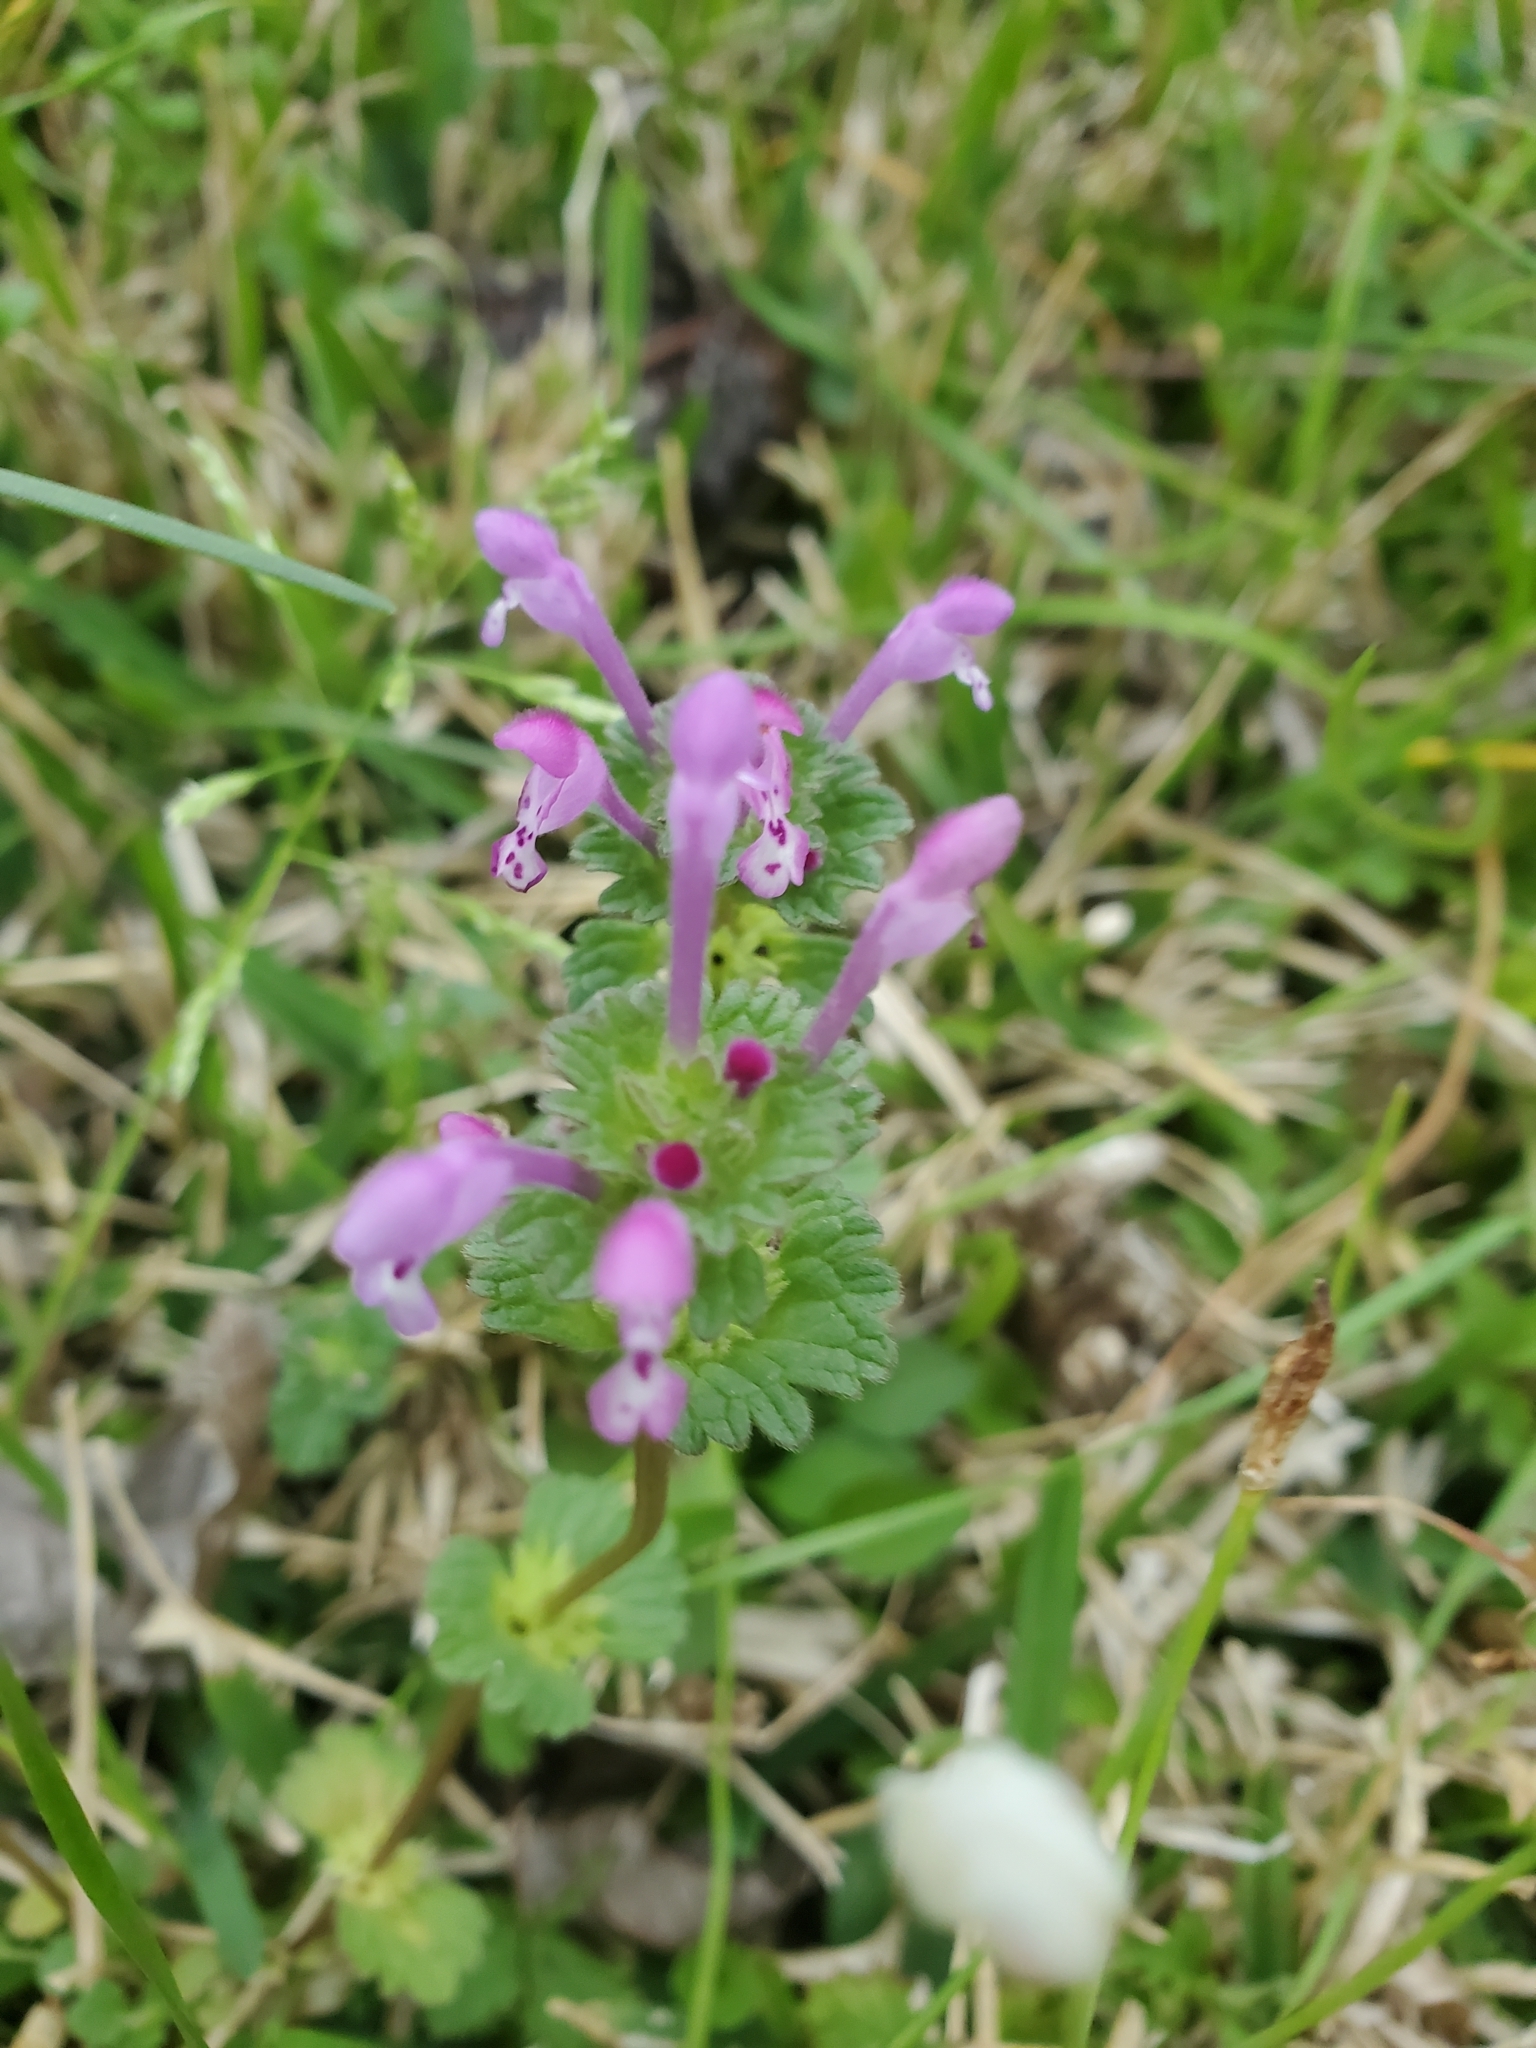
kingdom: Plantae
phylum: Tracheophyta
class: Magnoliopsida
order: Lamiales
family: Lamiaceae
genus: Lamium
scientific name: Lamium amplexicaule
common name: Henbit dead-nettle
